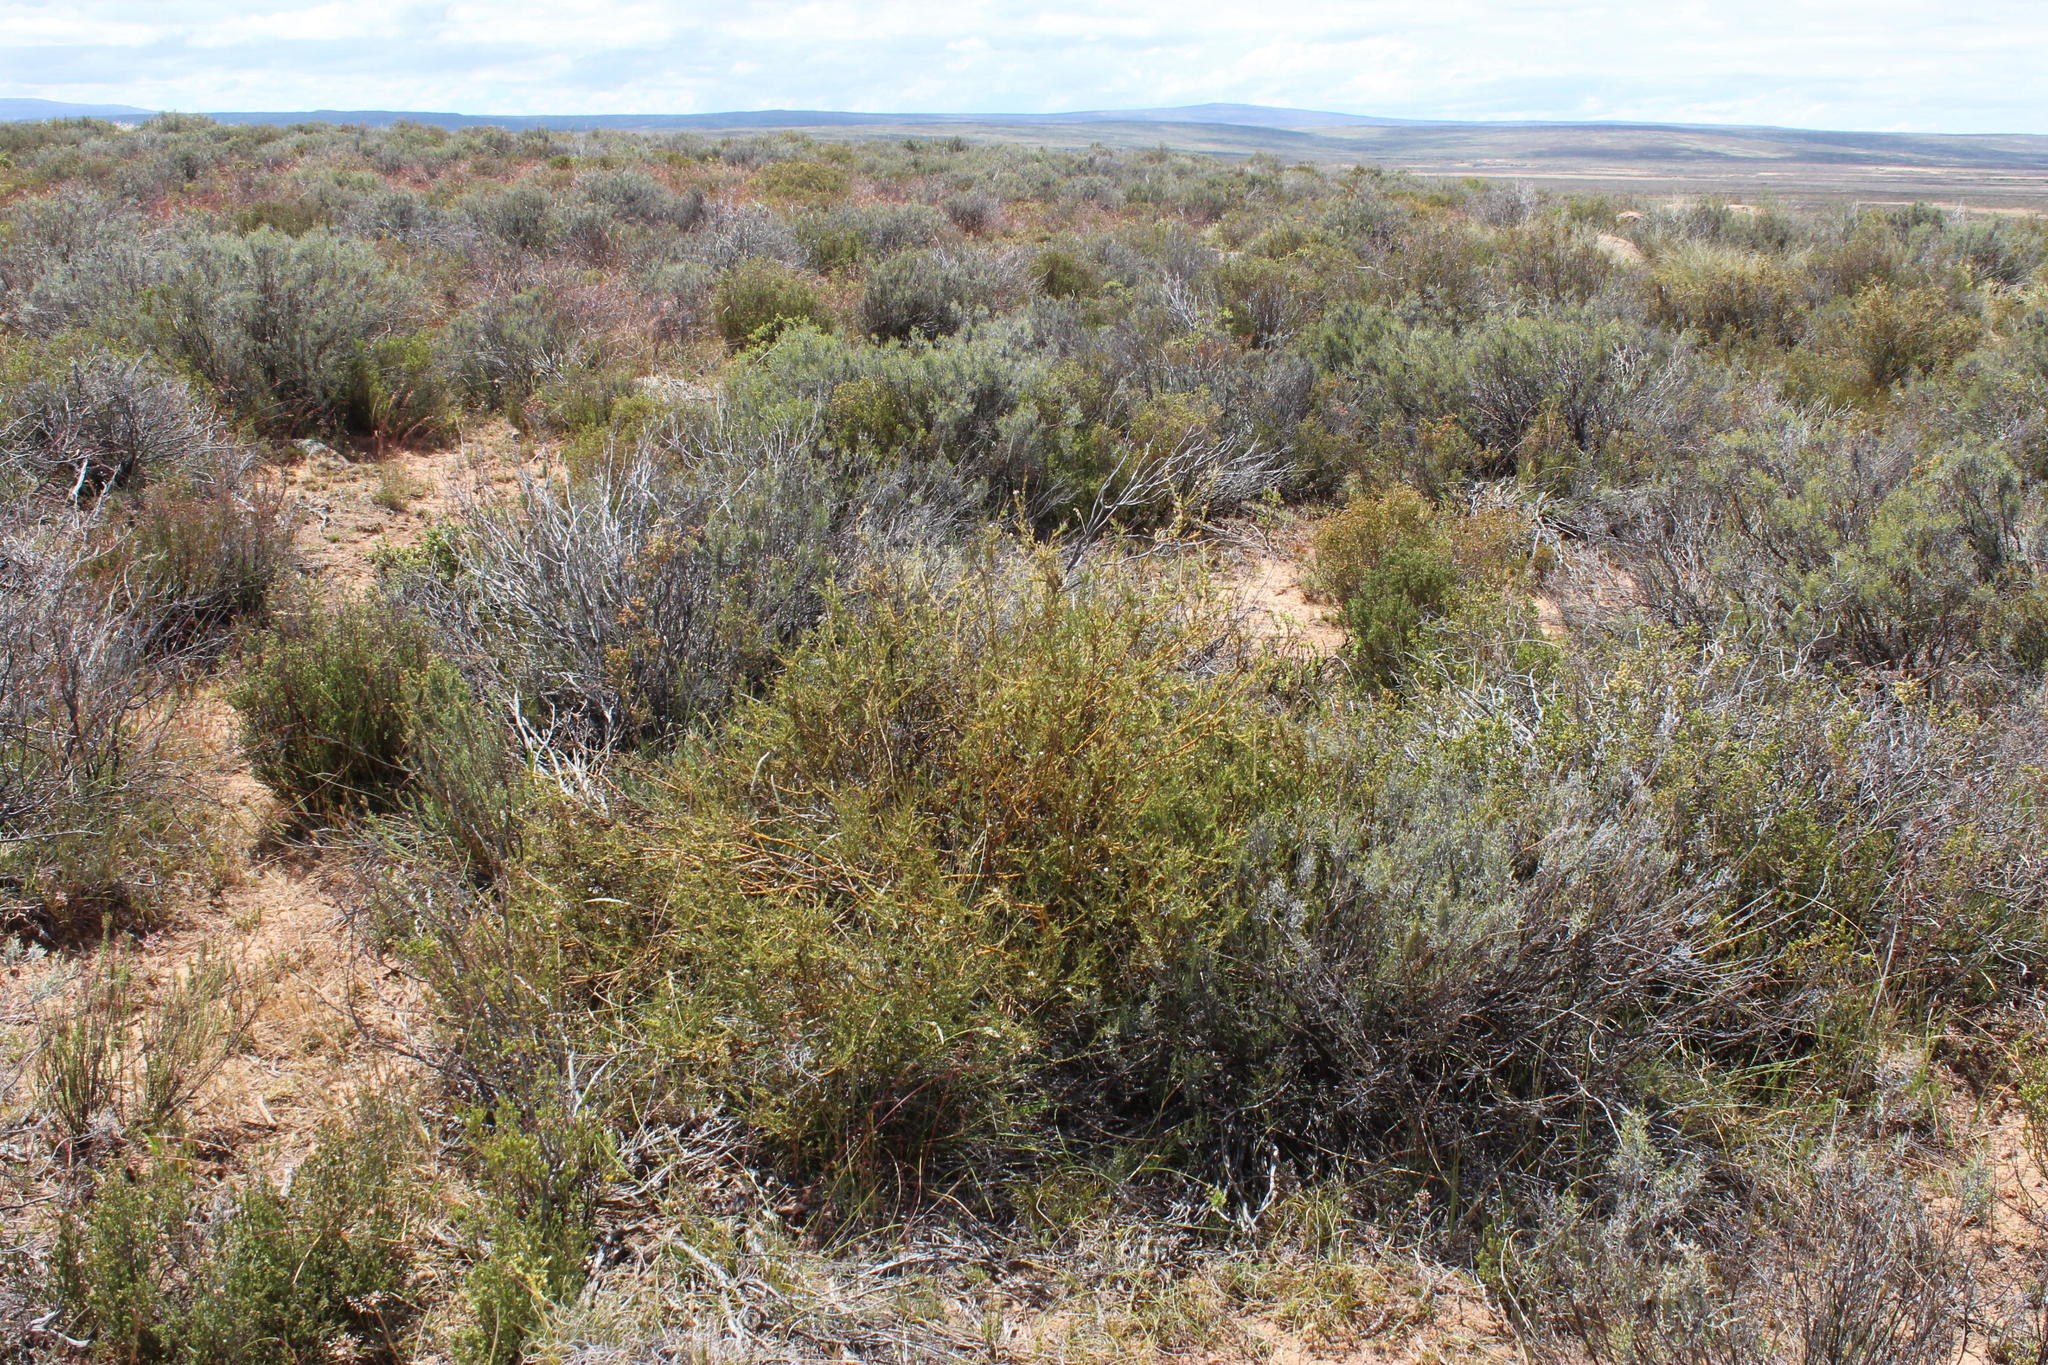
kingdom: Plantae
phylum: Tracheophyta
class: Magnoliopsida
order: Fabales
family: Polygalaceae
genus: Muraltia
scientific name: Muraltia horrida
